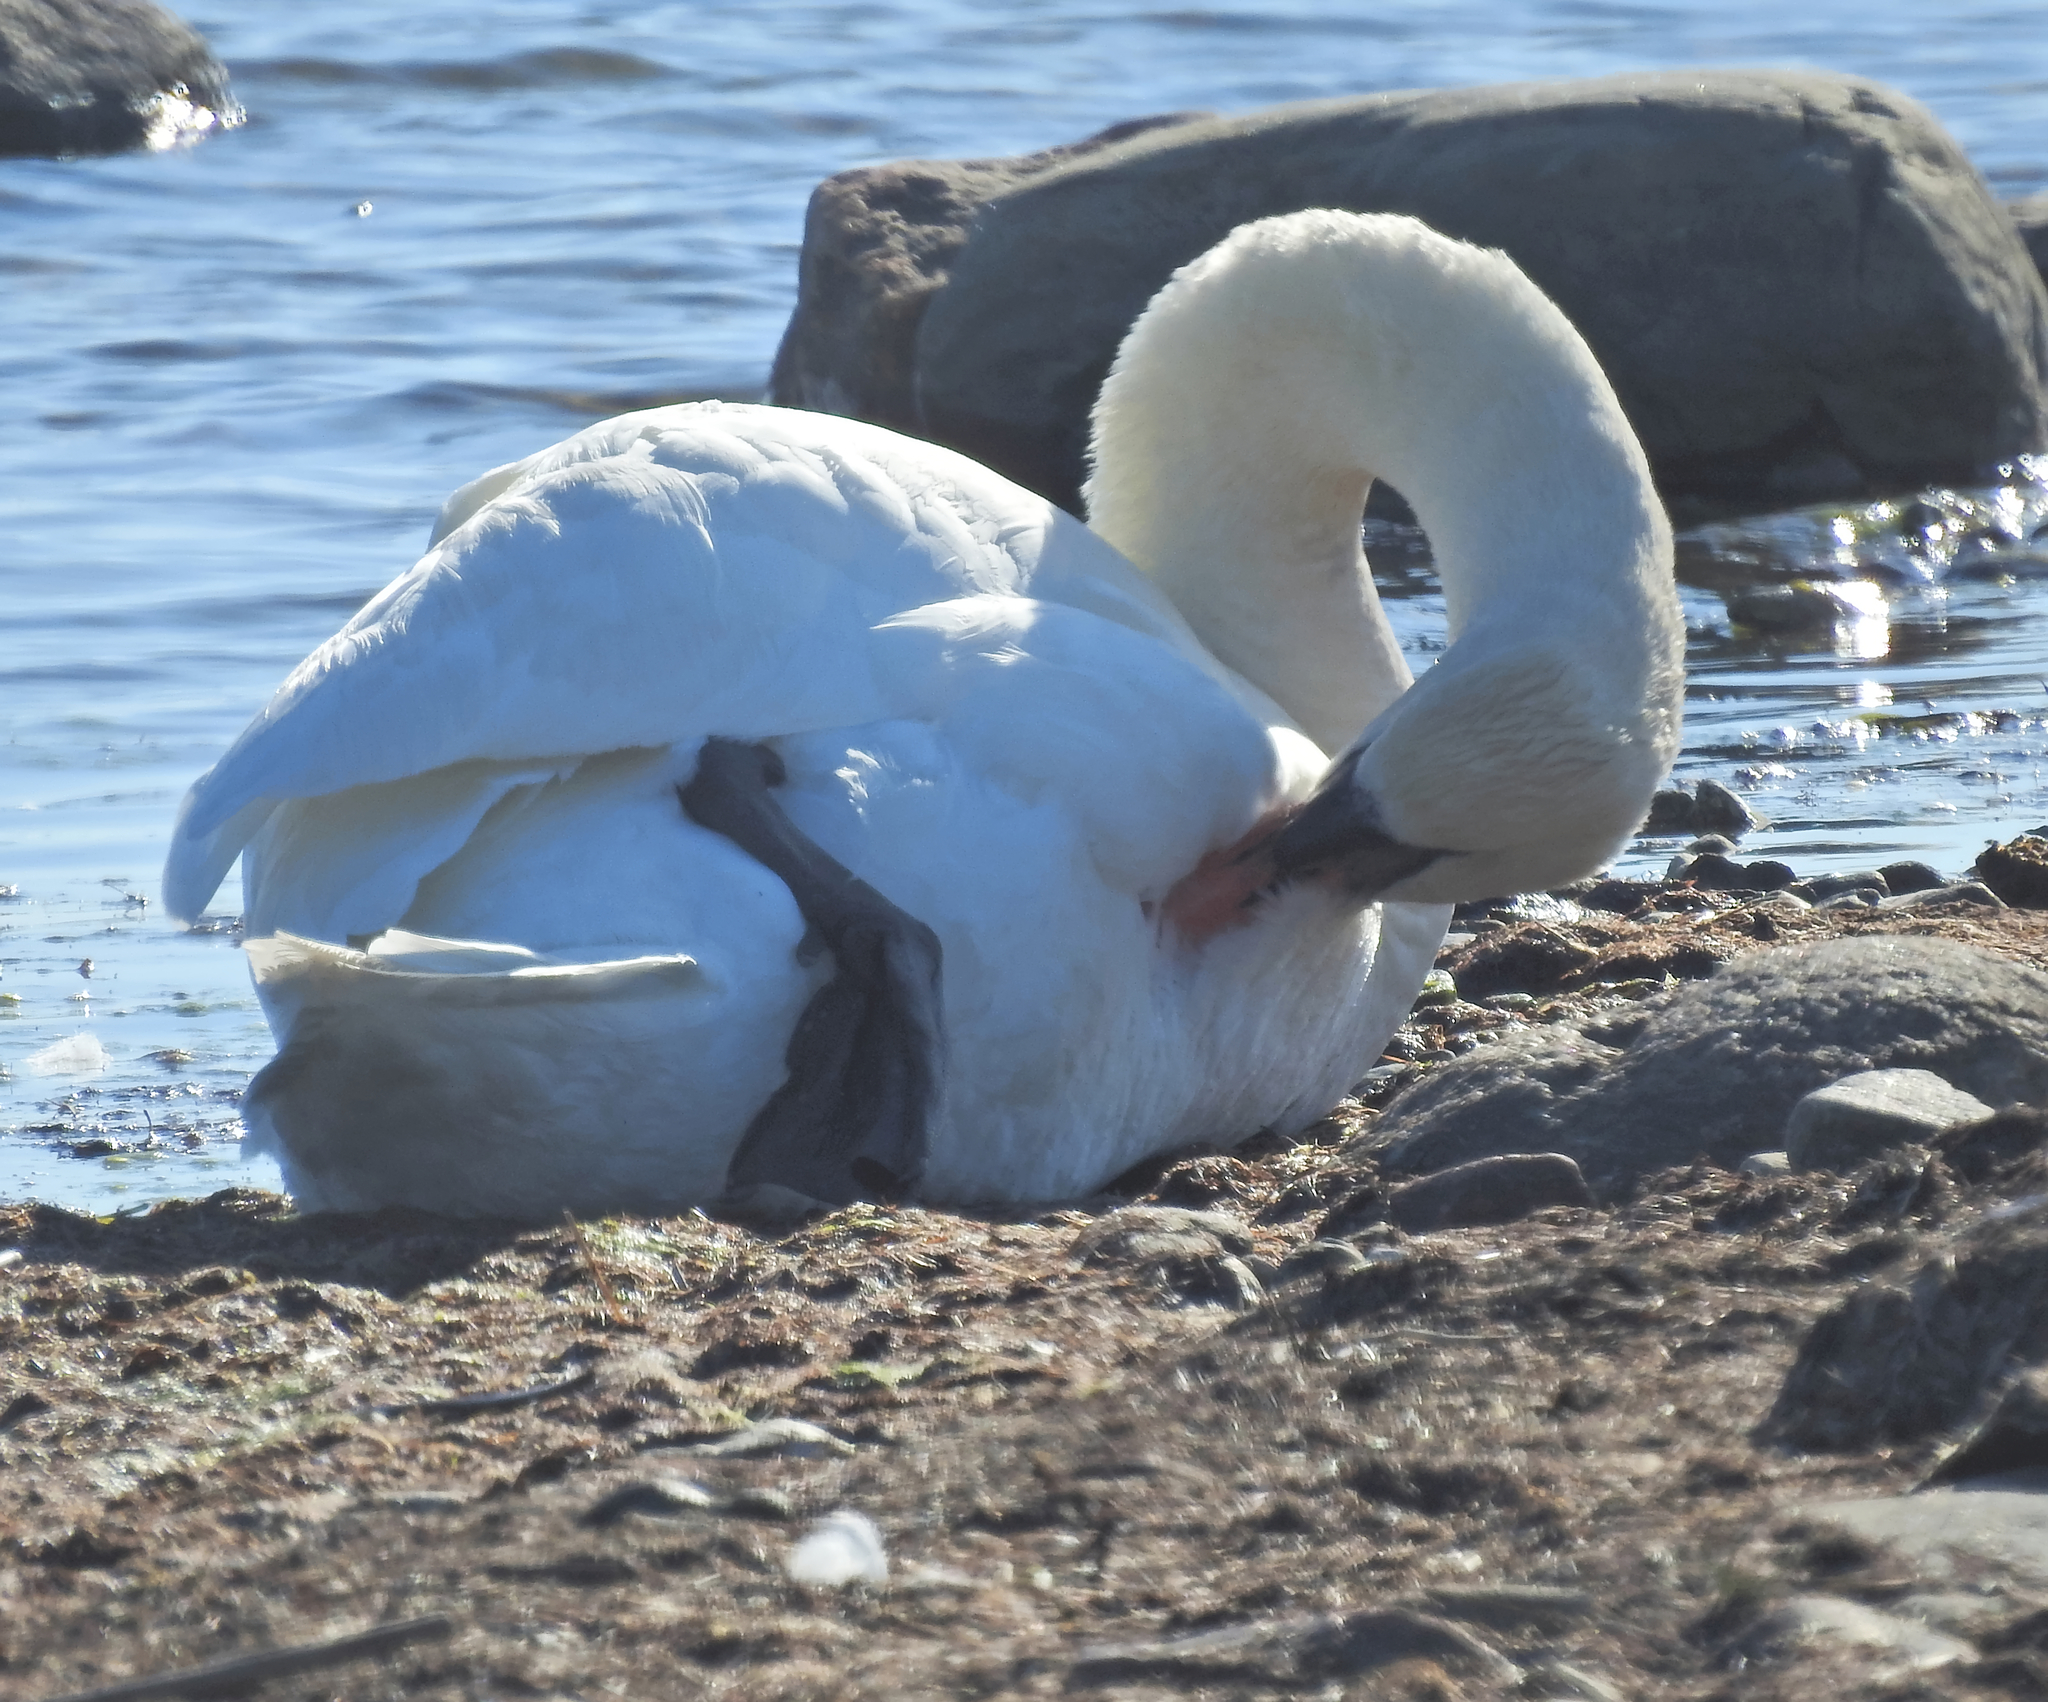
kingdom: Animalia
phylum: Chordata
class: Aves
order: Anseriformes
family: Anatidae
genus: Cygnus
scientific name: Cygnus olor
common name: Mute swan
